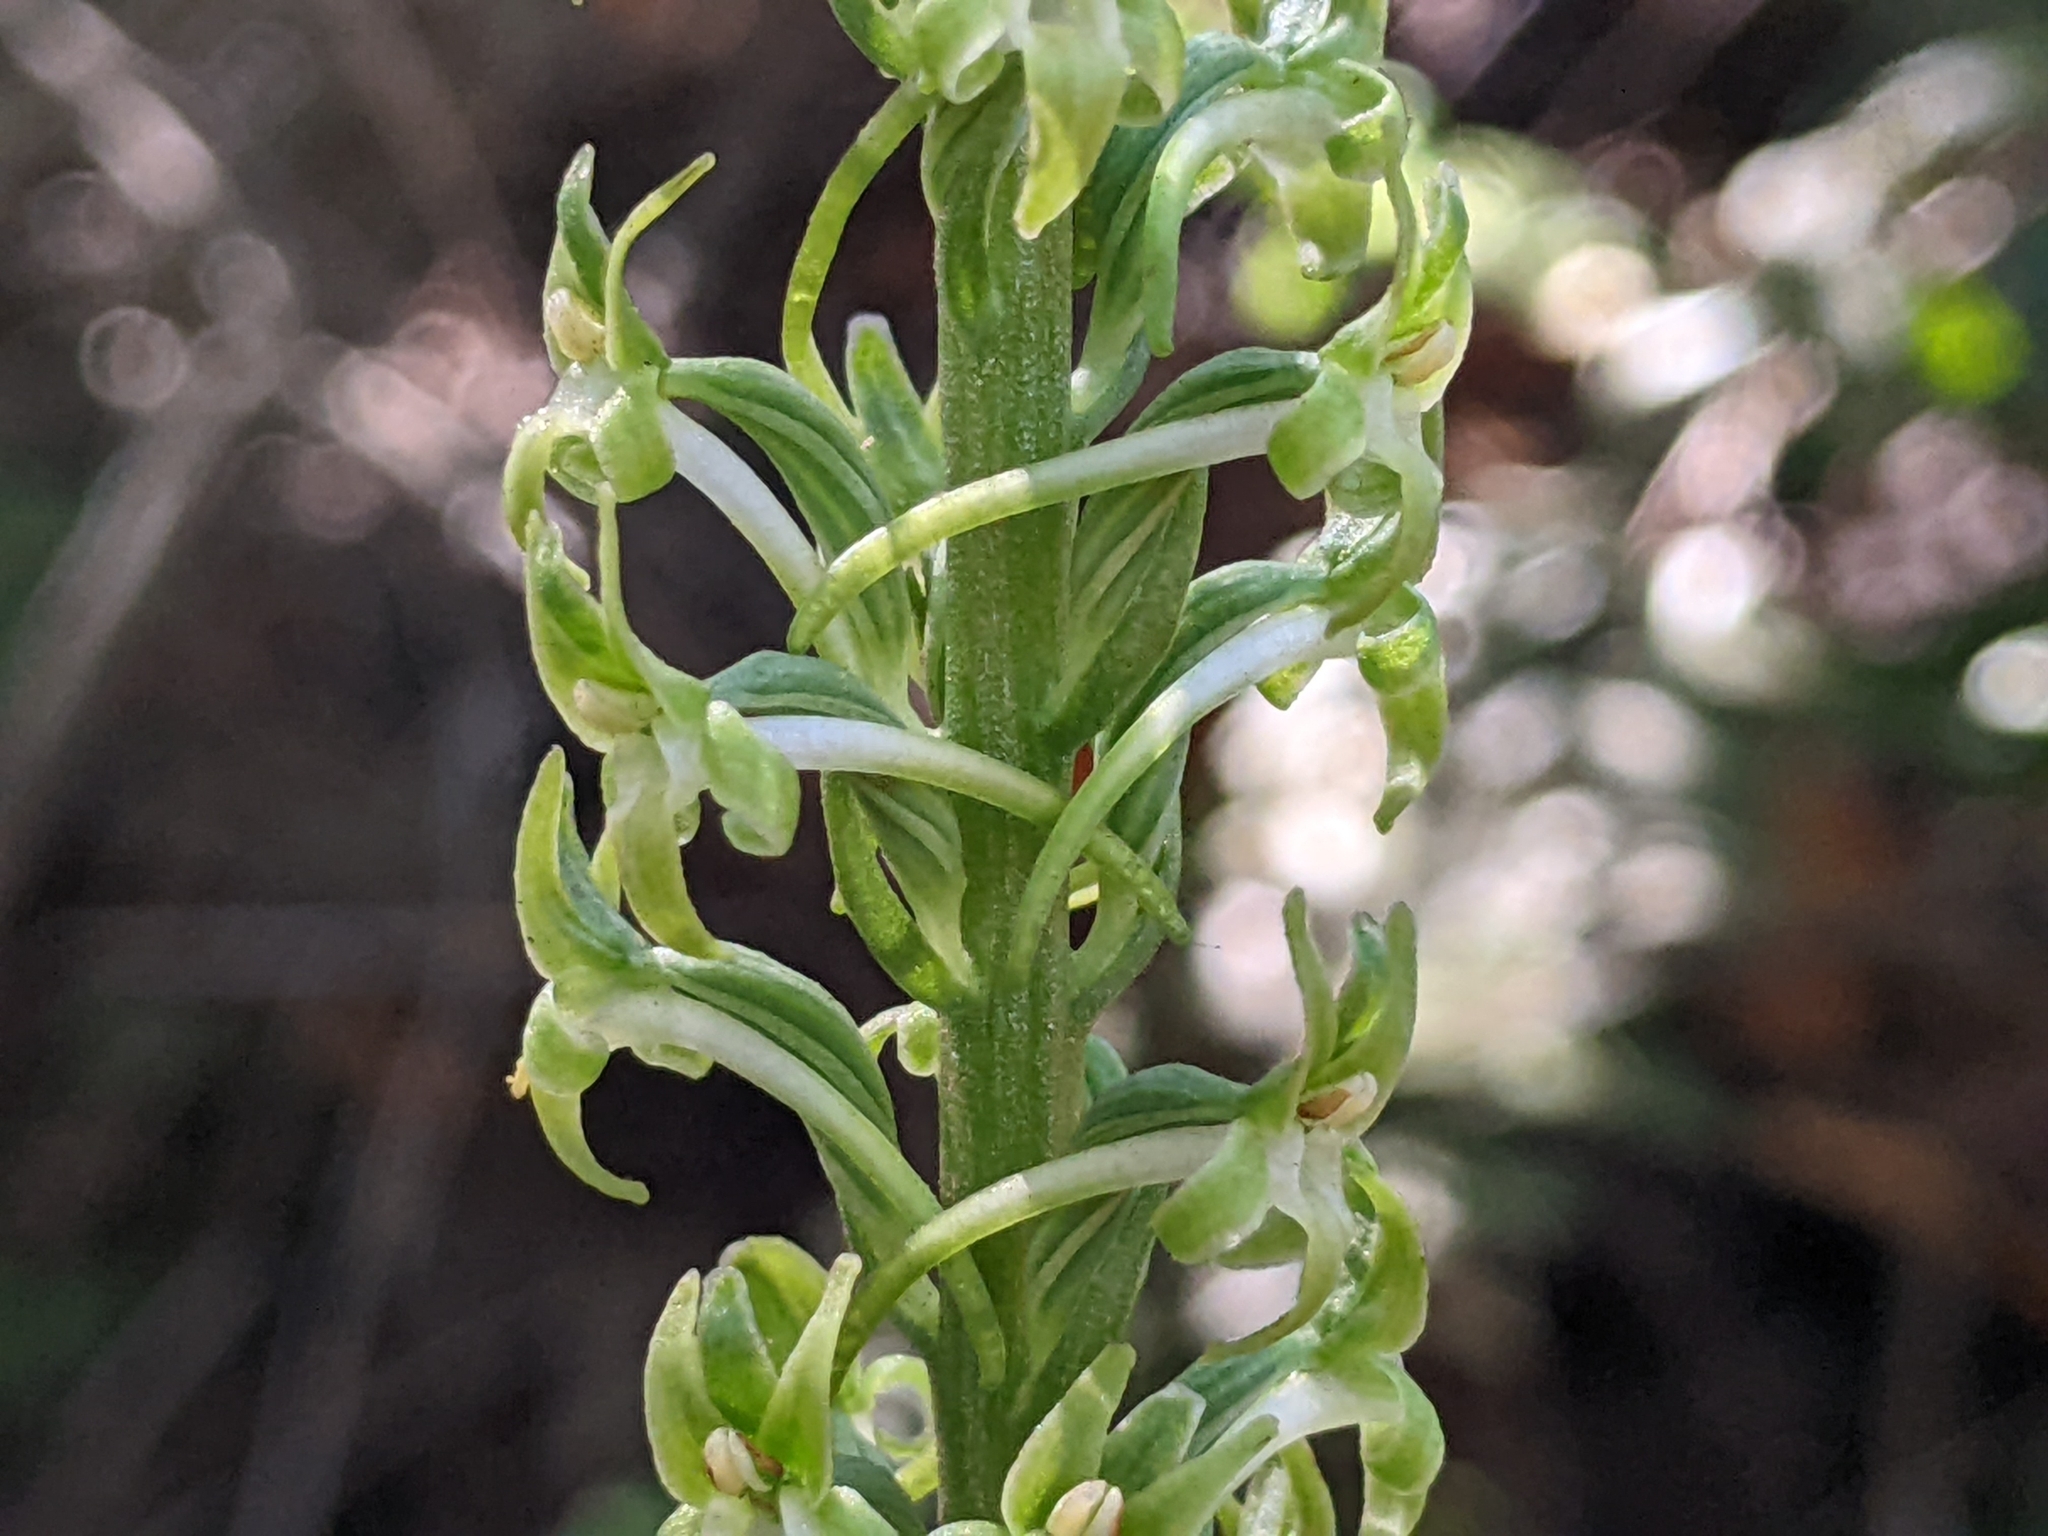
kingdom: Plantae
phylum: Tracheophyta
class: Liliopsida
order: Asparagales
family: Orchidaceae
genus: Platanthera
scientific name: Platanthera elongata
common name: Dense-flowered rein orchid
